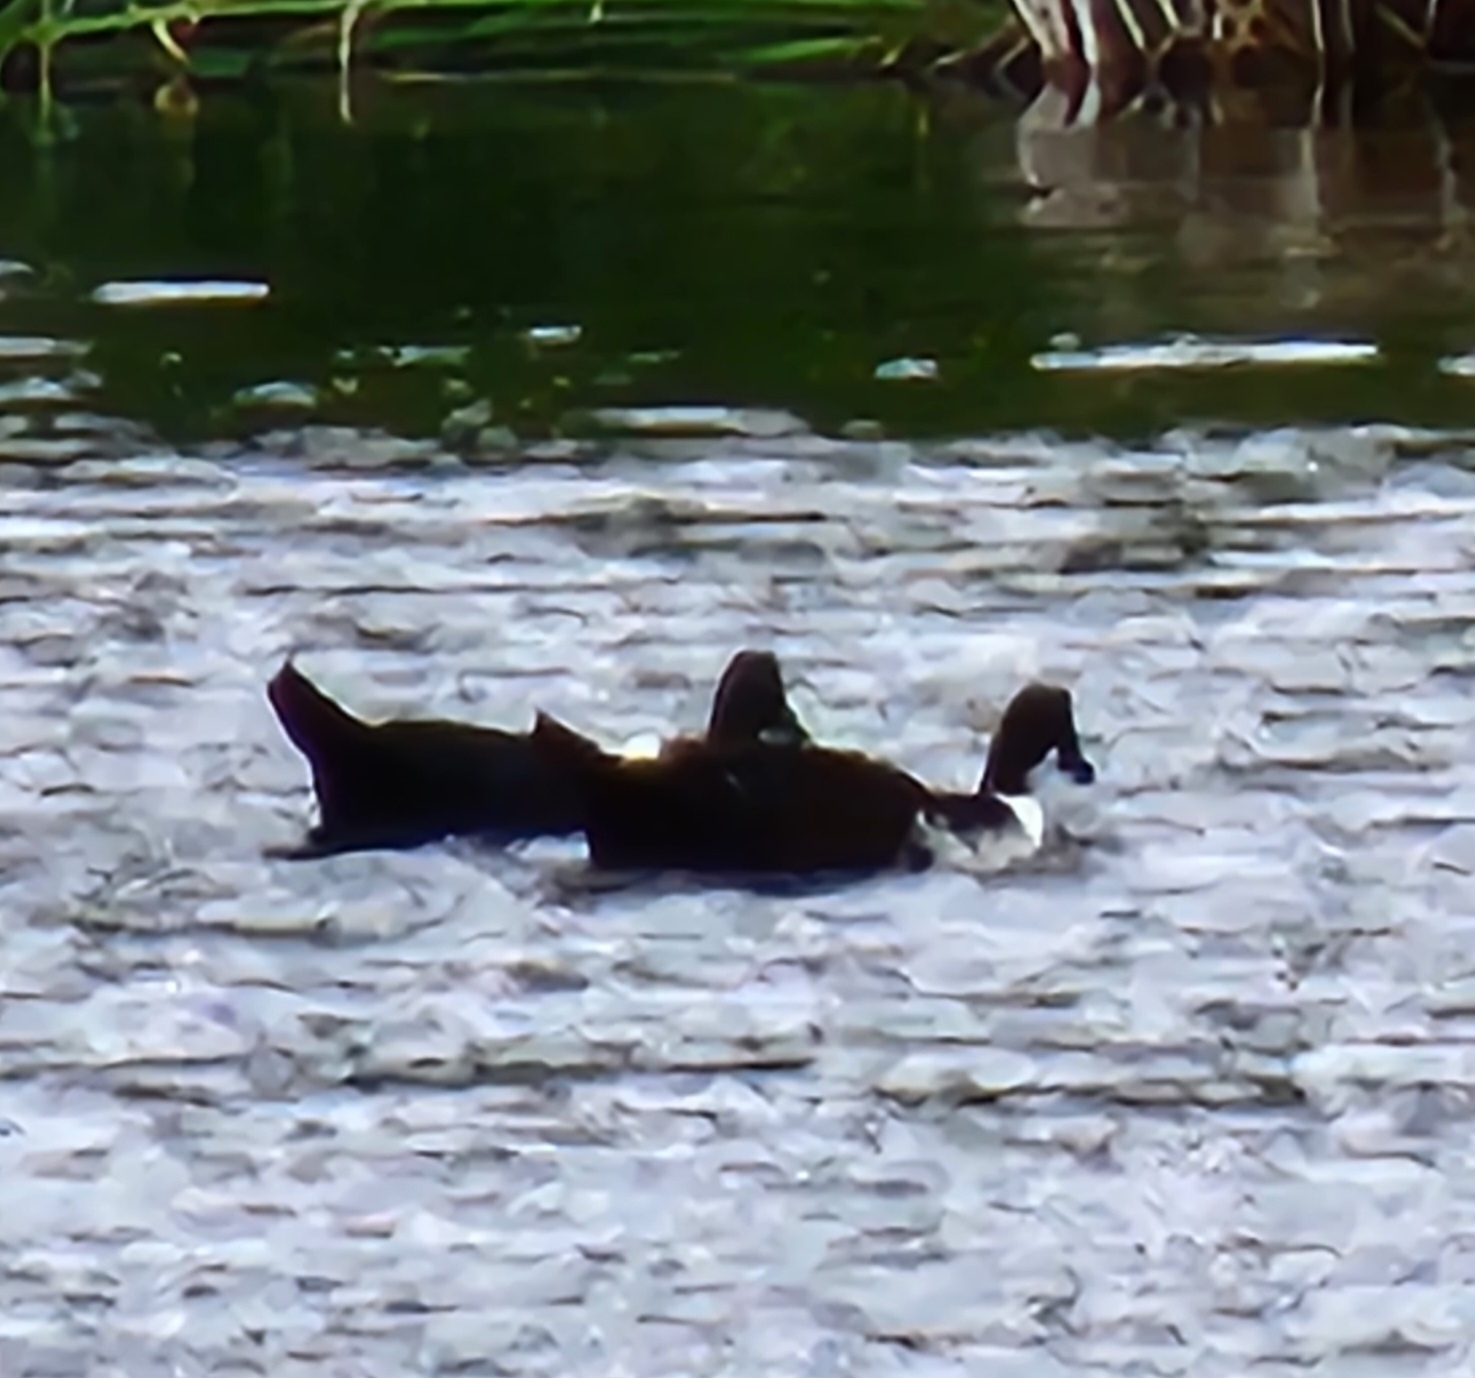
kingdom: Animalia
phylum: Chordata
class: Aves
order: Anseriformes
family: Anatidae
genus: Anas
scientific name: Anas platyrhynchos
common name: Mallard
